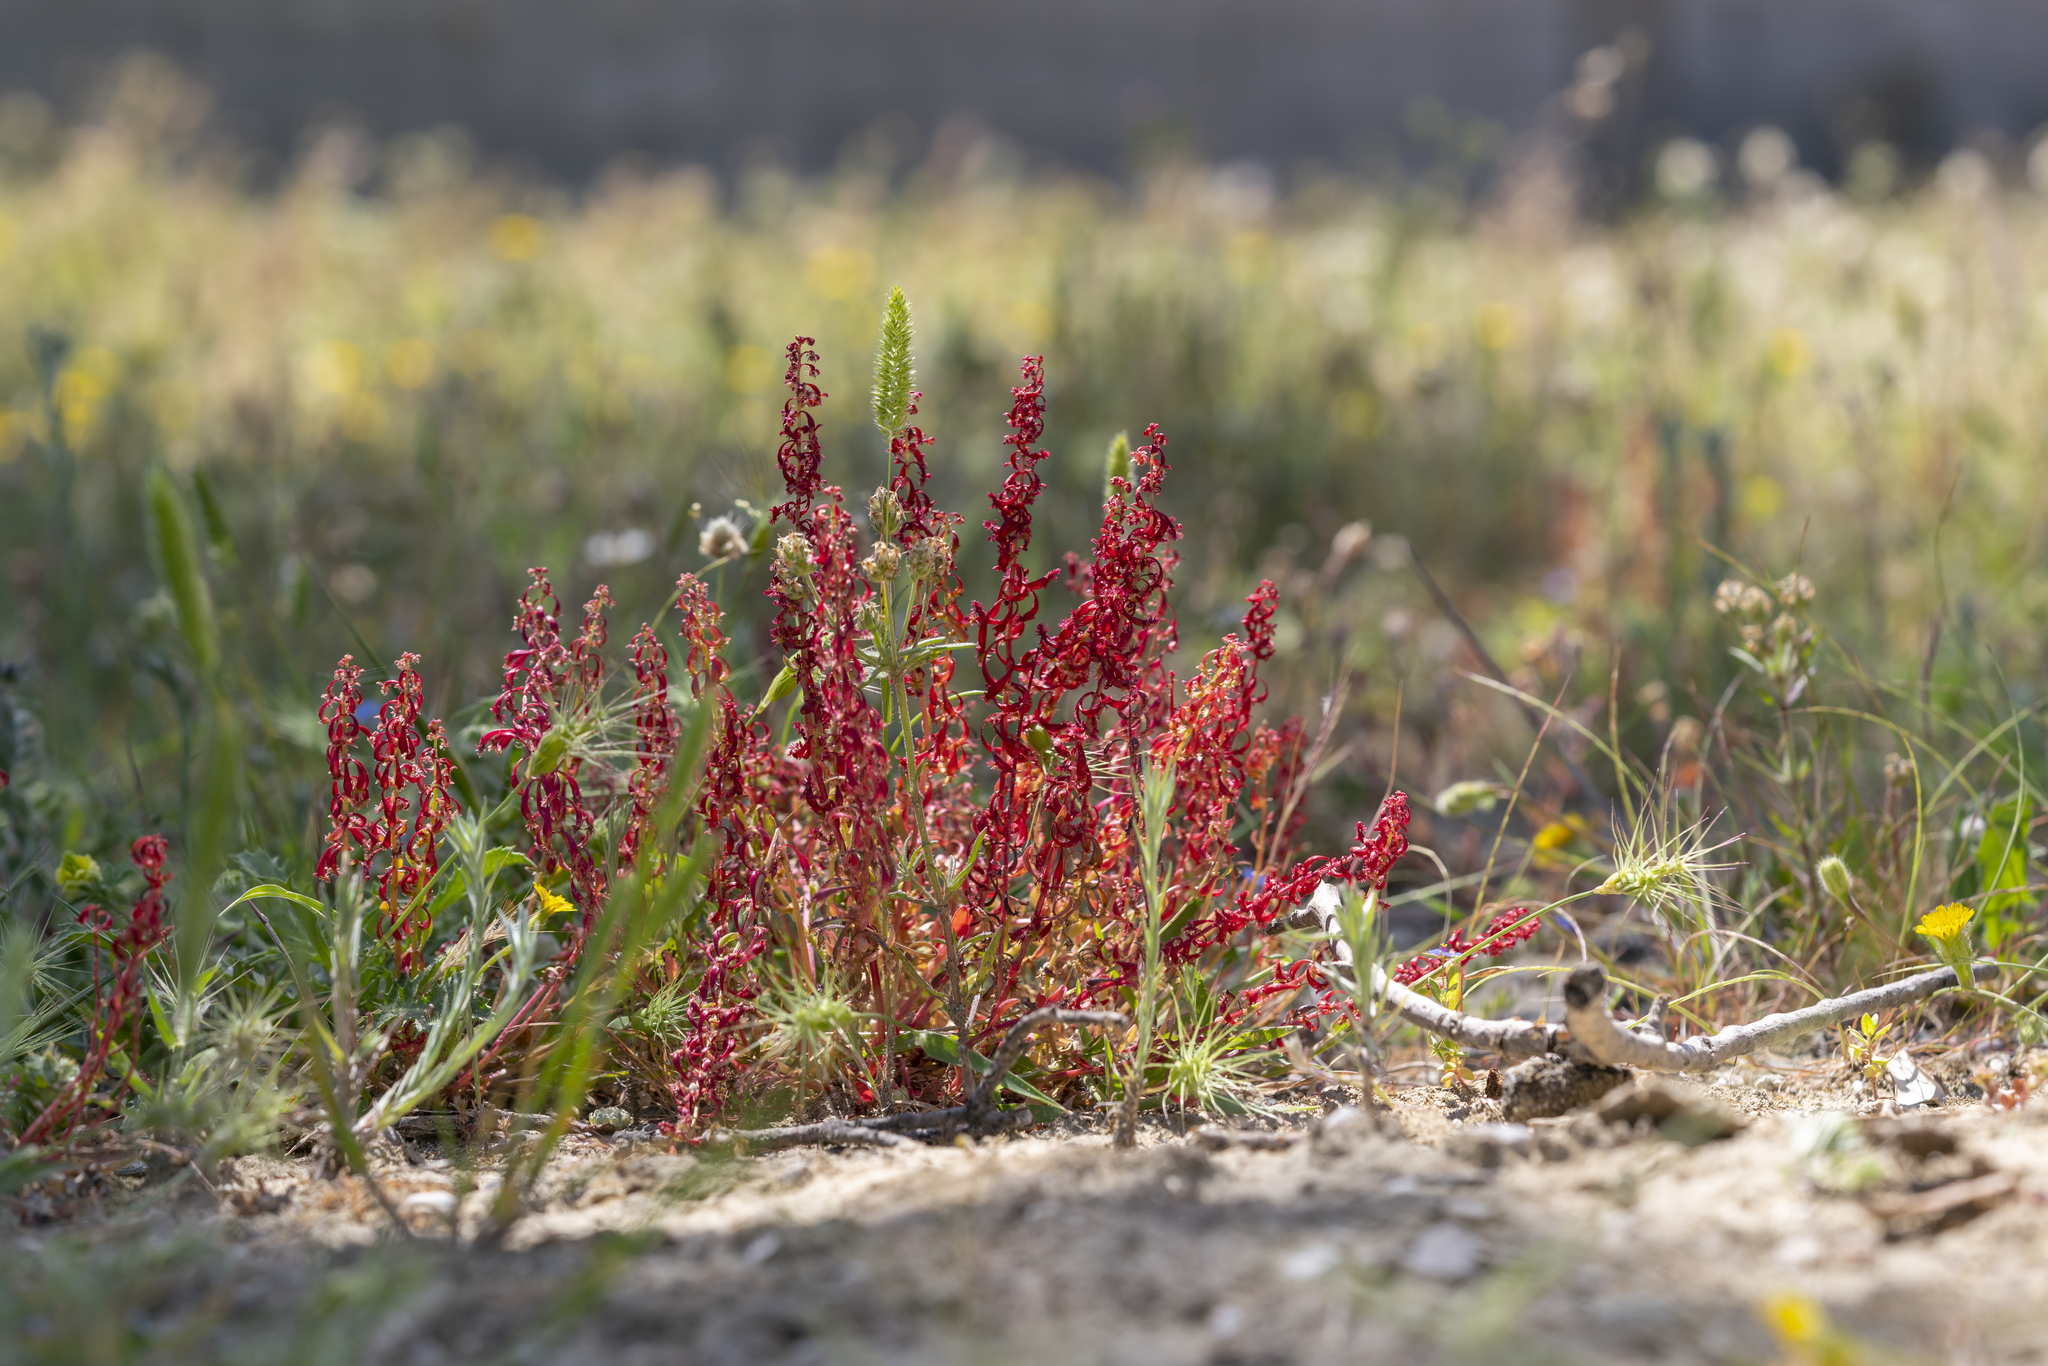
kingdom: Plantae
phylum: Tracheophyta
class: Magnoliopsida
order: Caryophyllales
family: Polygonaceae
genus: Rumex
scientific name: Rumex bucephalophorus
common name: Red dock
